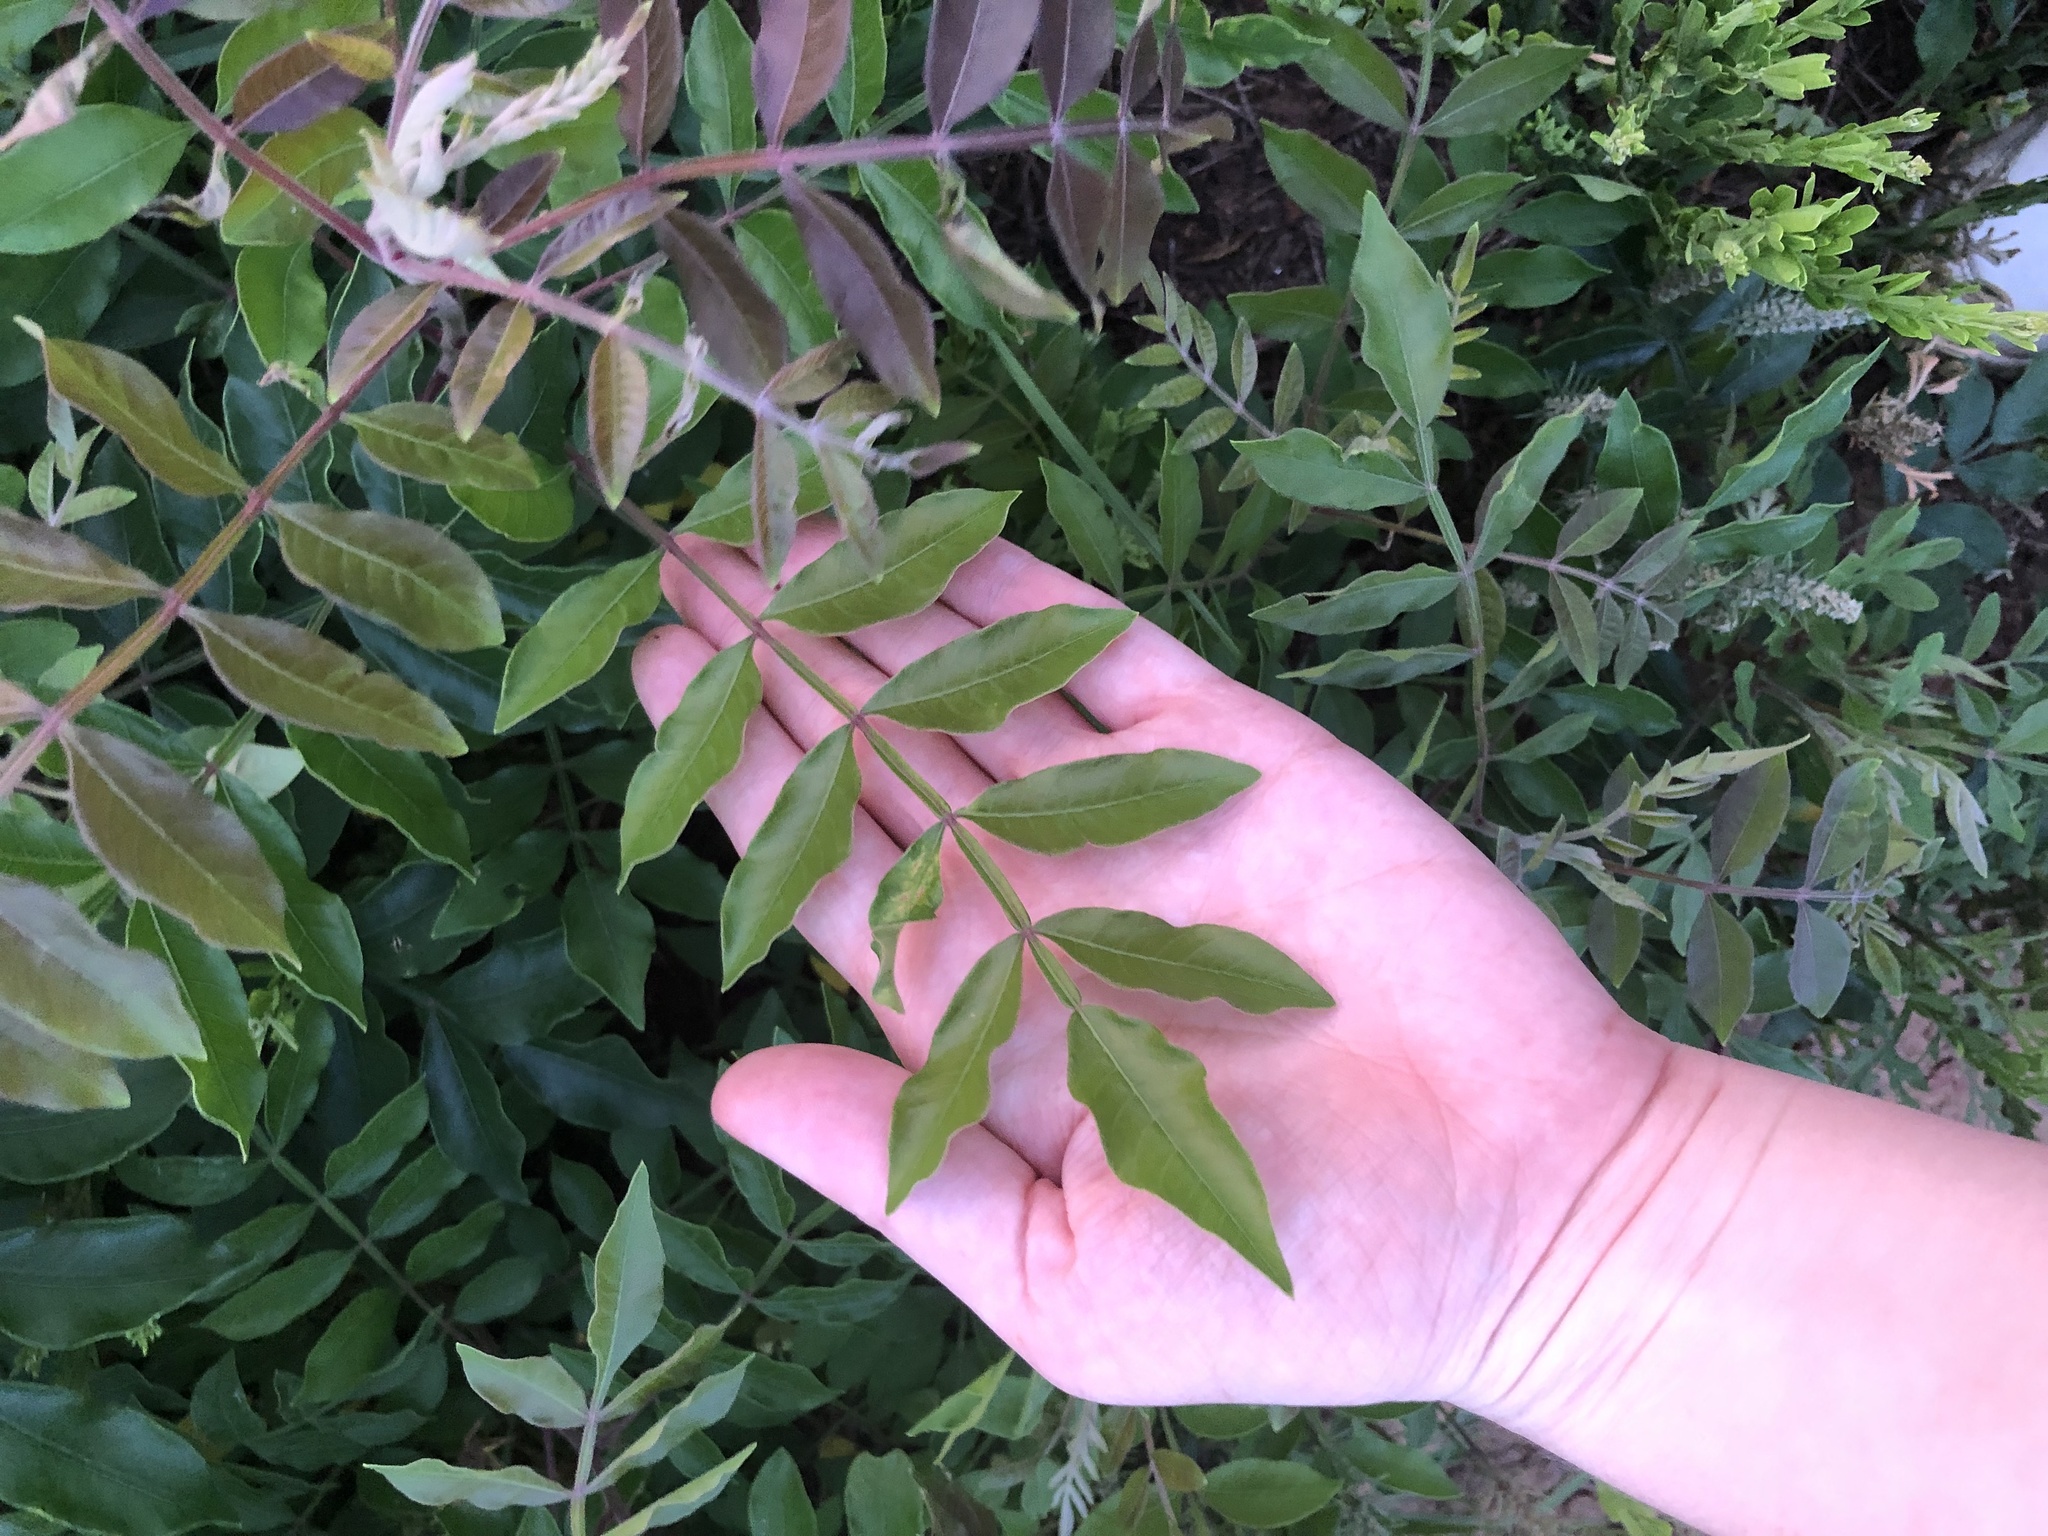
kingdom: Plantae
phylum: Tracheophyta
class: Magnoliopsida
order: Sapindales
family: Anacardiaceae
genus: Rhus
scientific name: Rhus copallina
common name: Shining sumac
